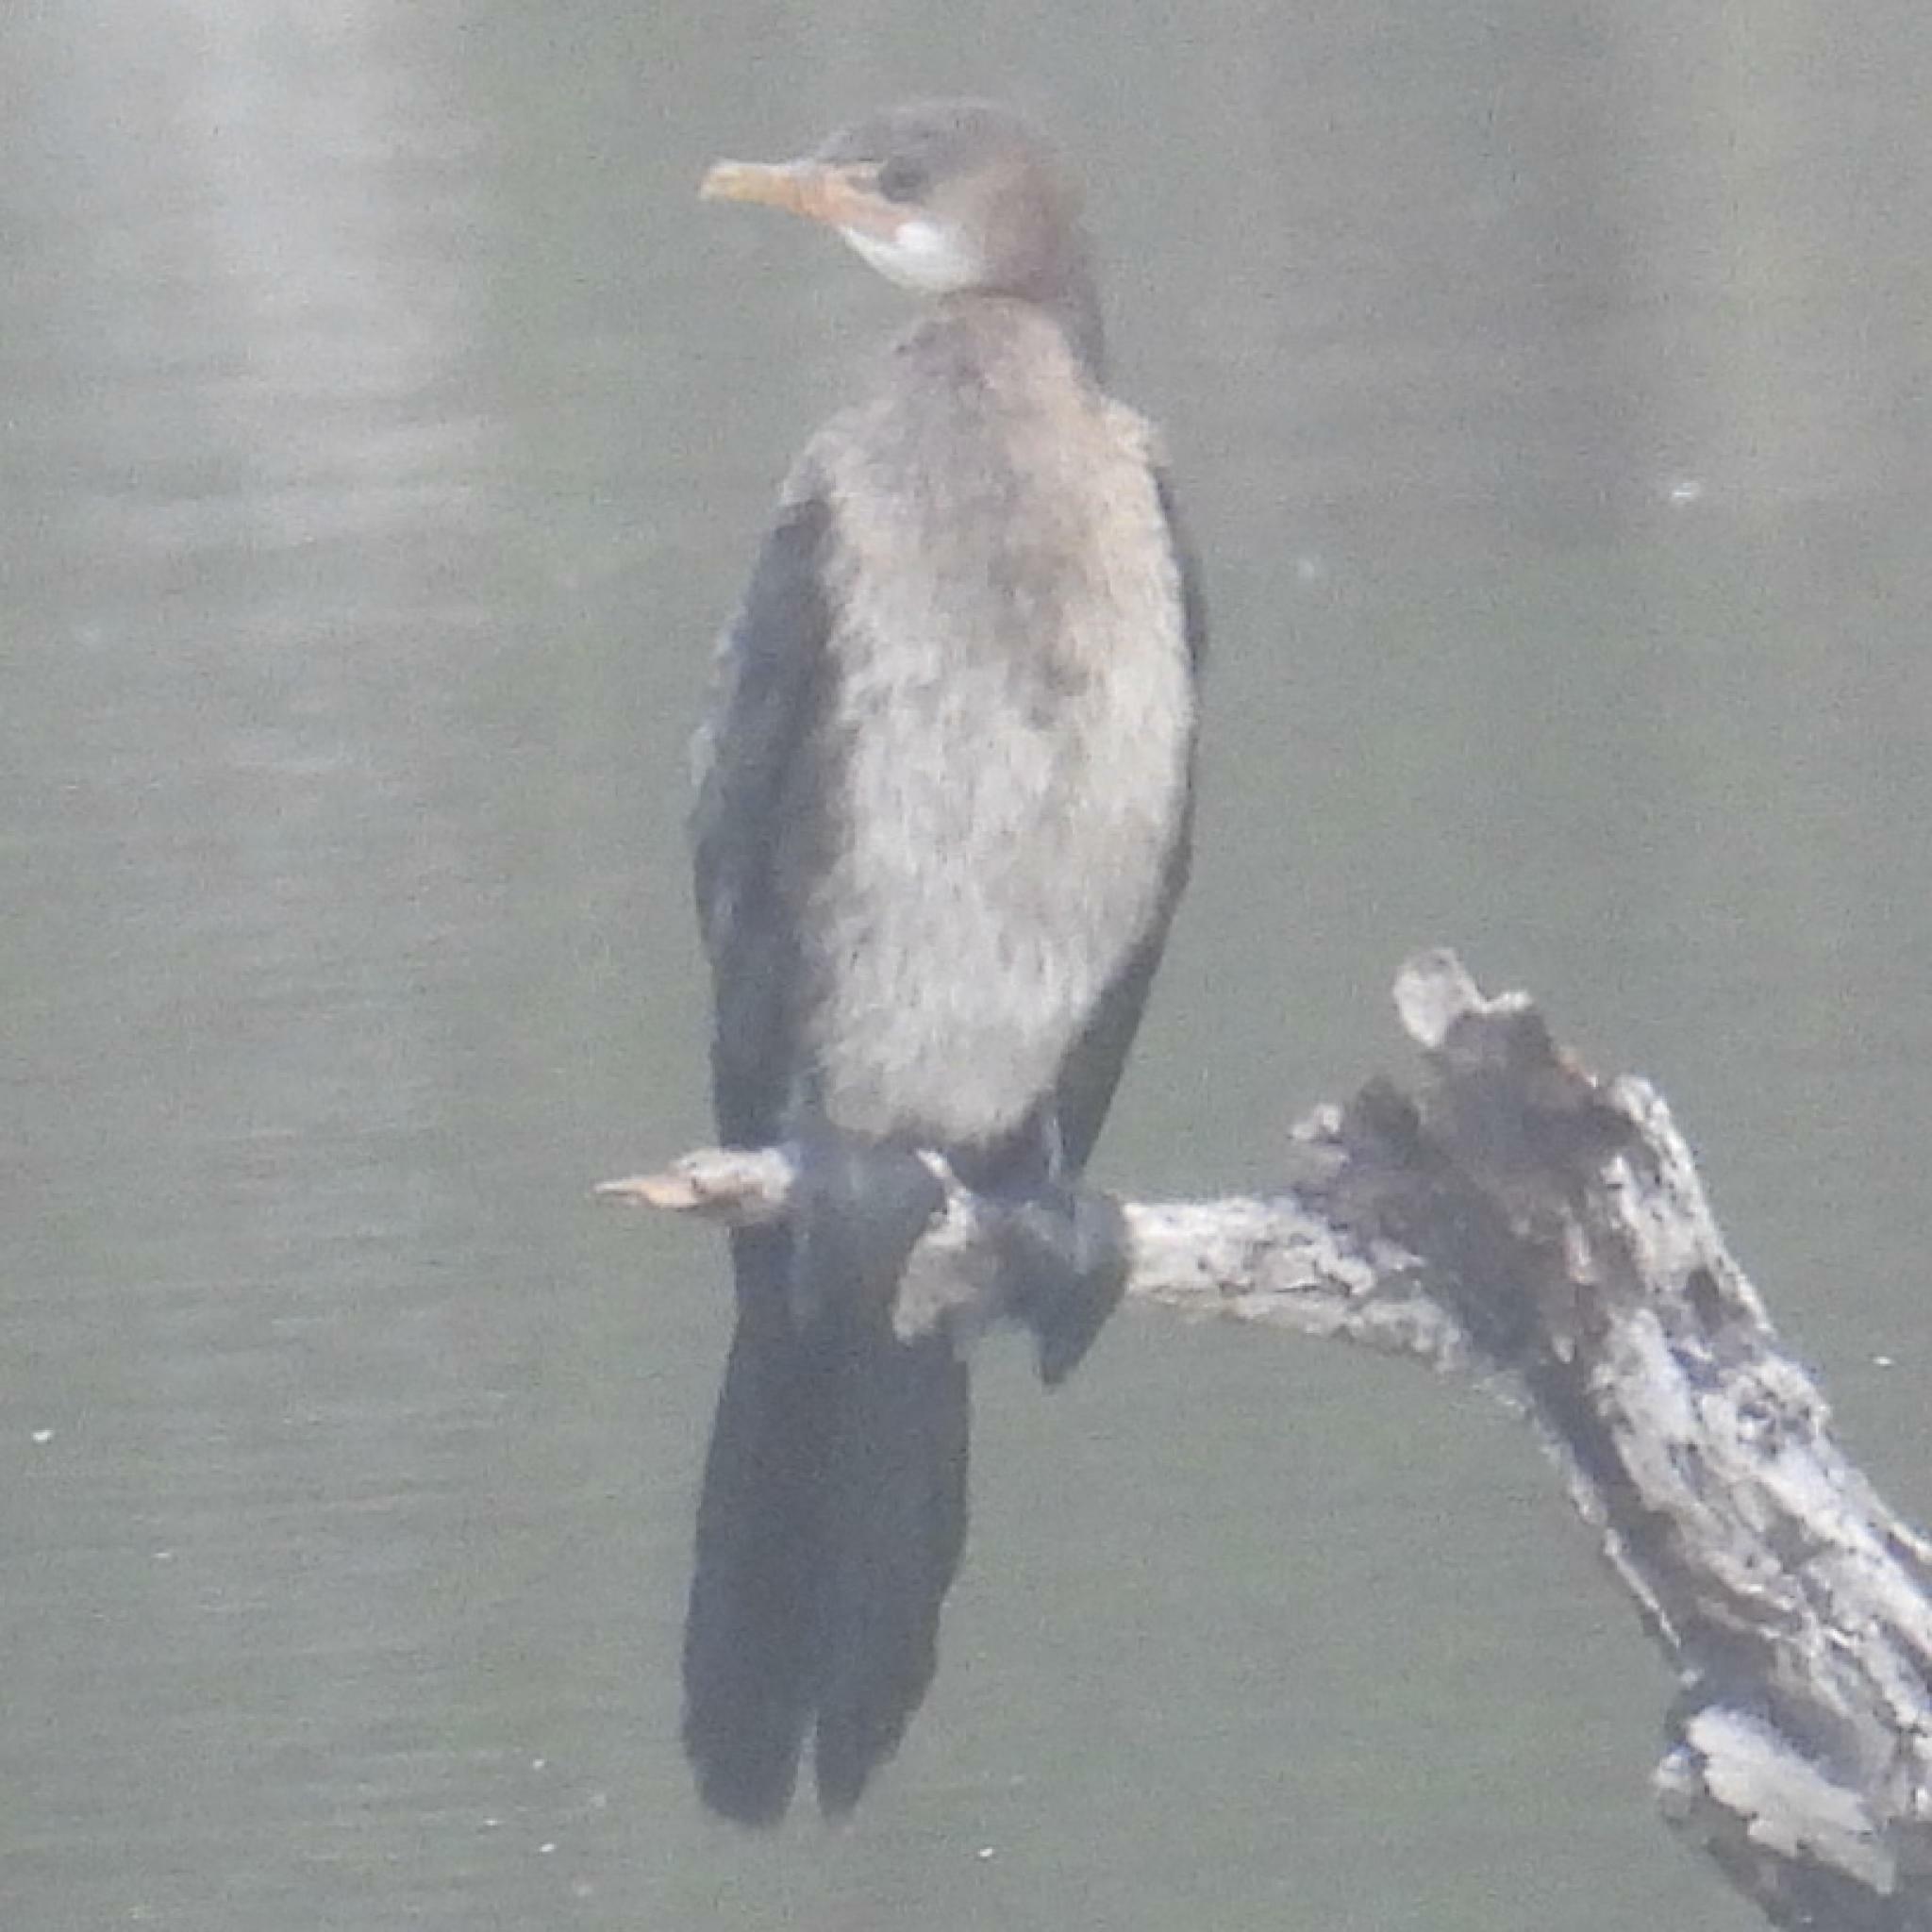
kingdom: Animalia
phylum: Chordata
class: Aves
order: Suliformes
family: Phalacrocoracidae
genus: Microcarbo
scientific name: Microcarbo africanus
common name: Long-tailed cormorant
